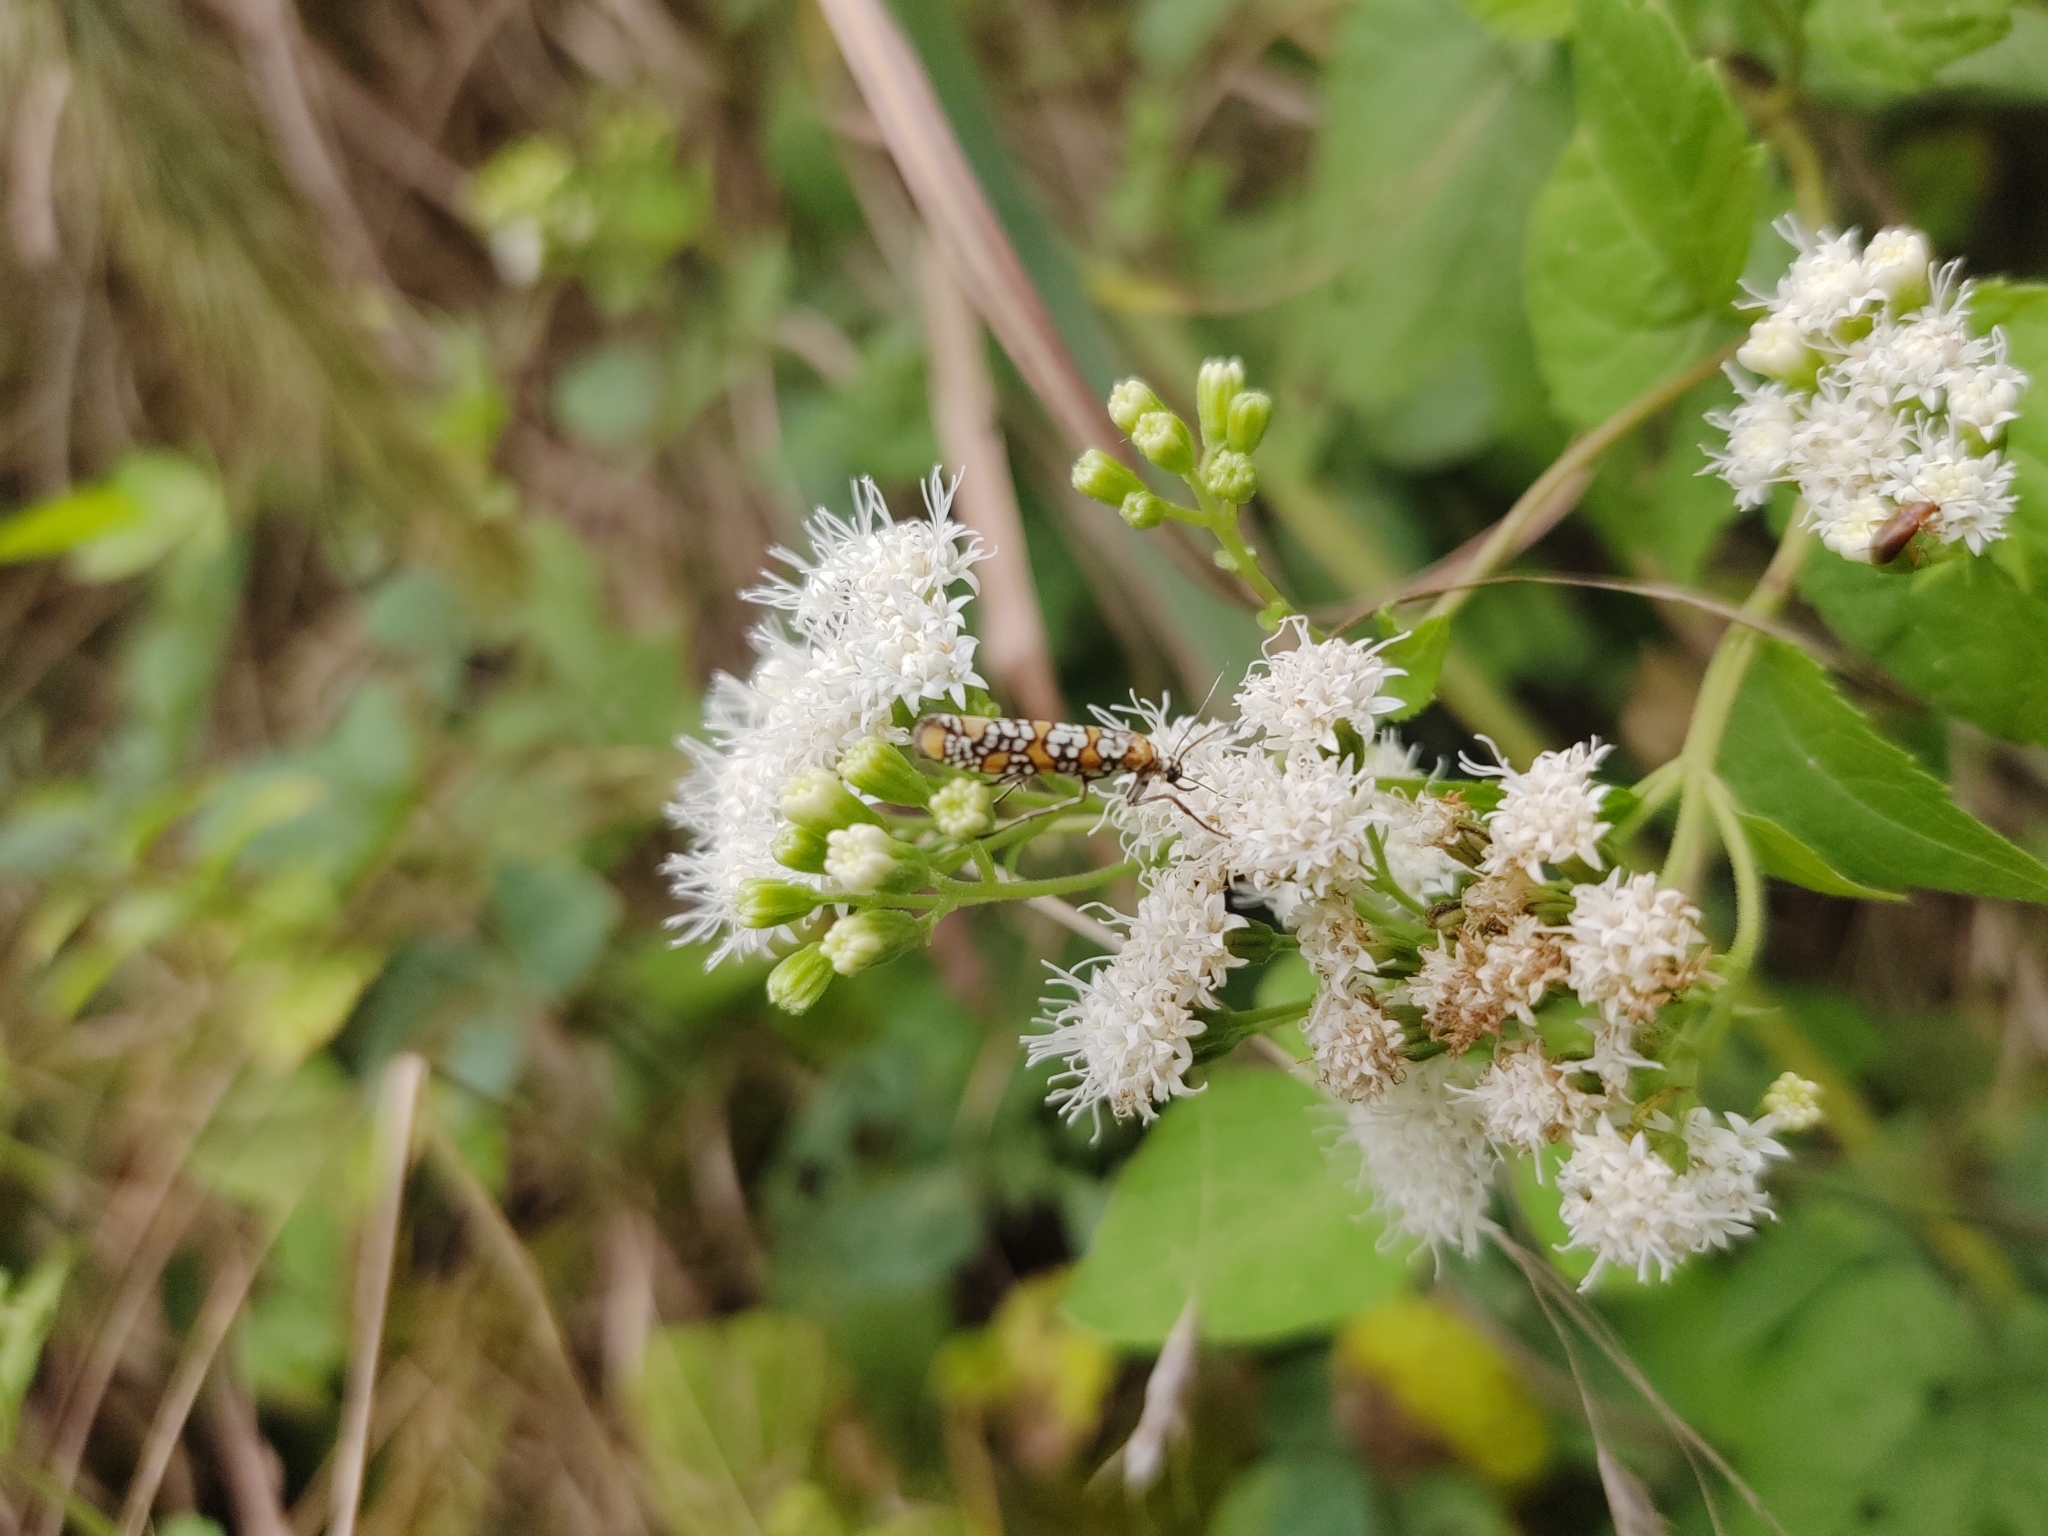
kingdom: Animalia
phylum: Arthropoda
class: Insecta
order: Lepidoptera
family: Attevidae
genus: Atteva
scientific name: Atteva punctella
